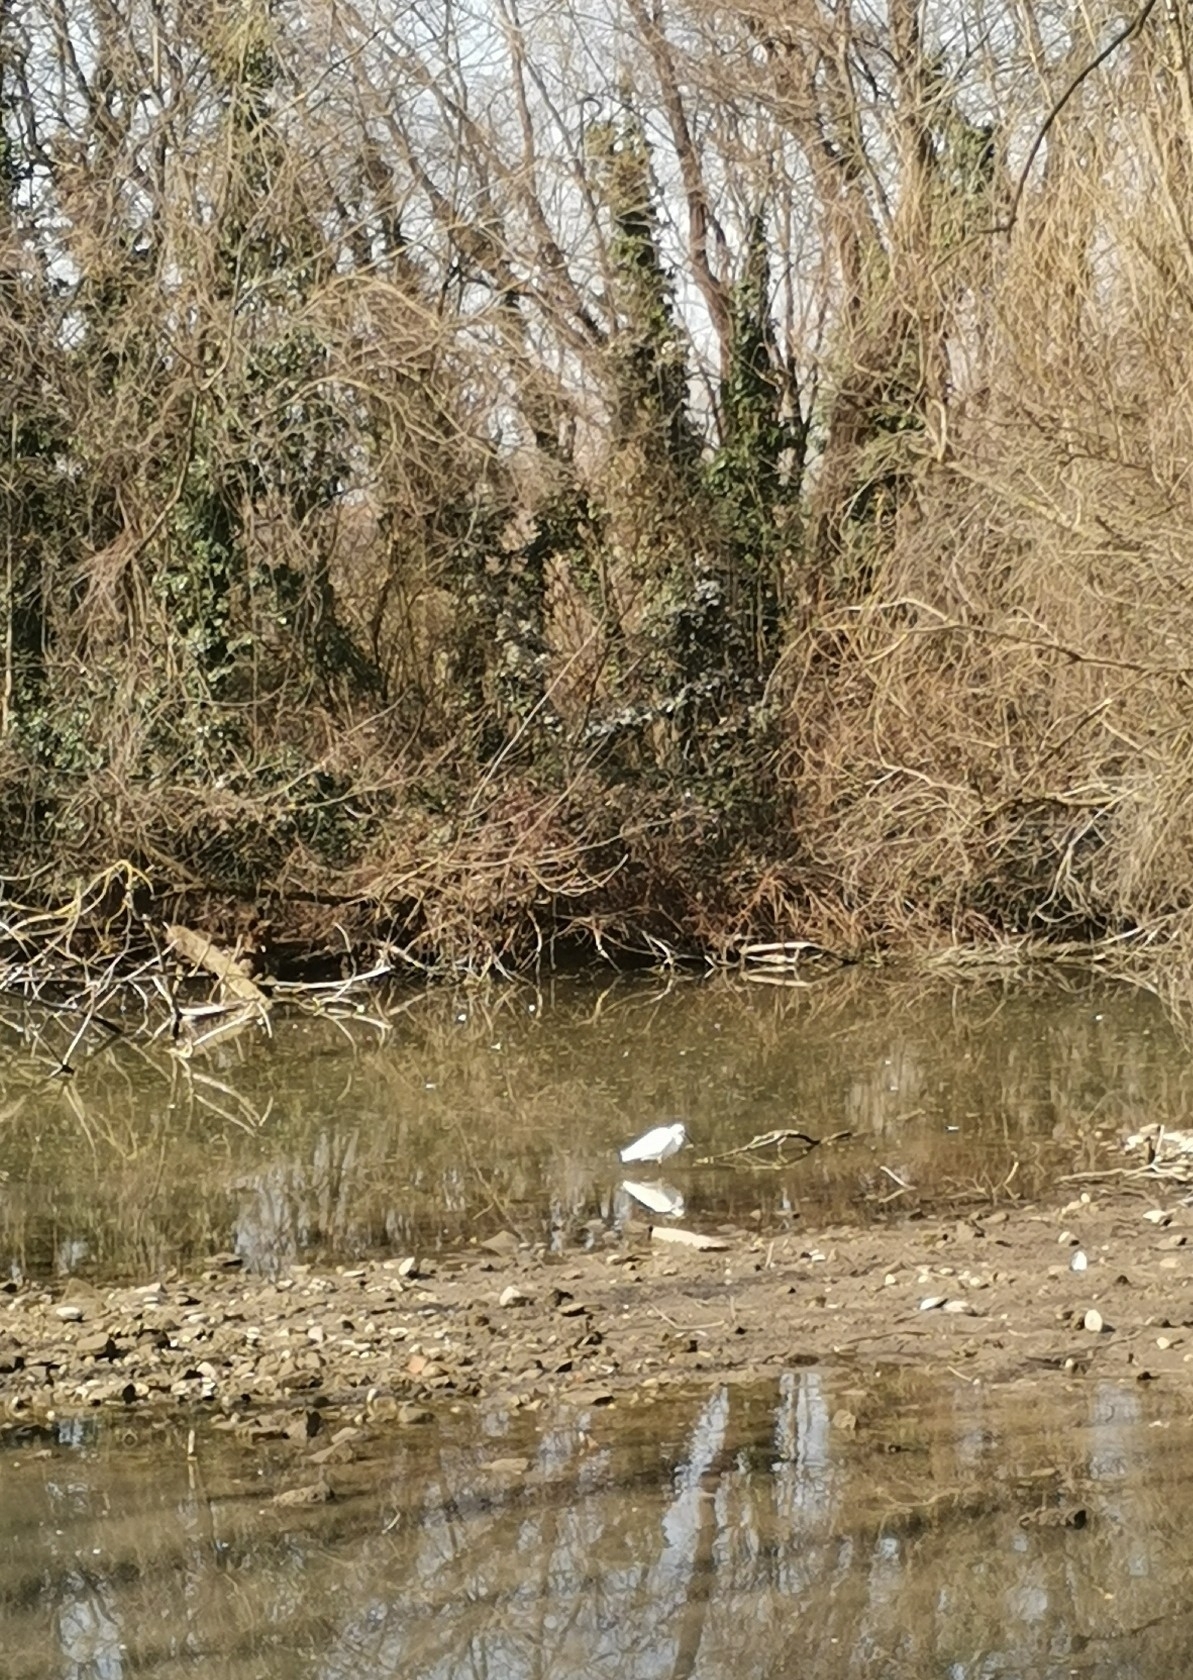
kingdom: Animalia
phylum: Chordata
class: Aves
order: Pelecaniformes
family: Ardeidae
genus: Egretta
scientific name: Egretta garzetta
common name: Little egret
